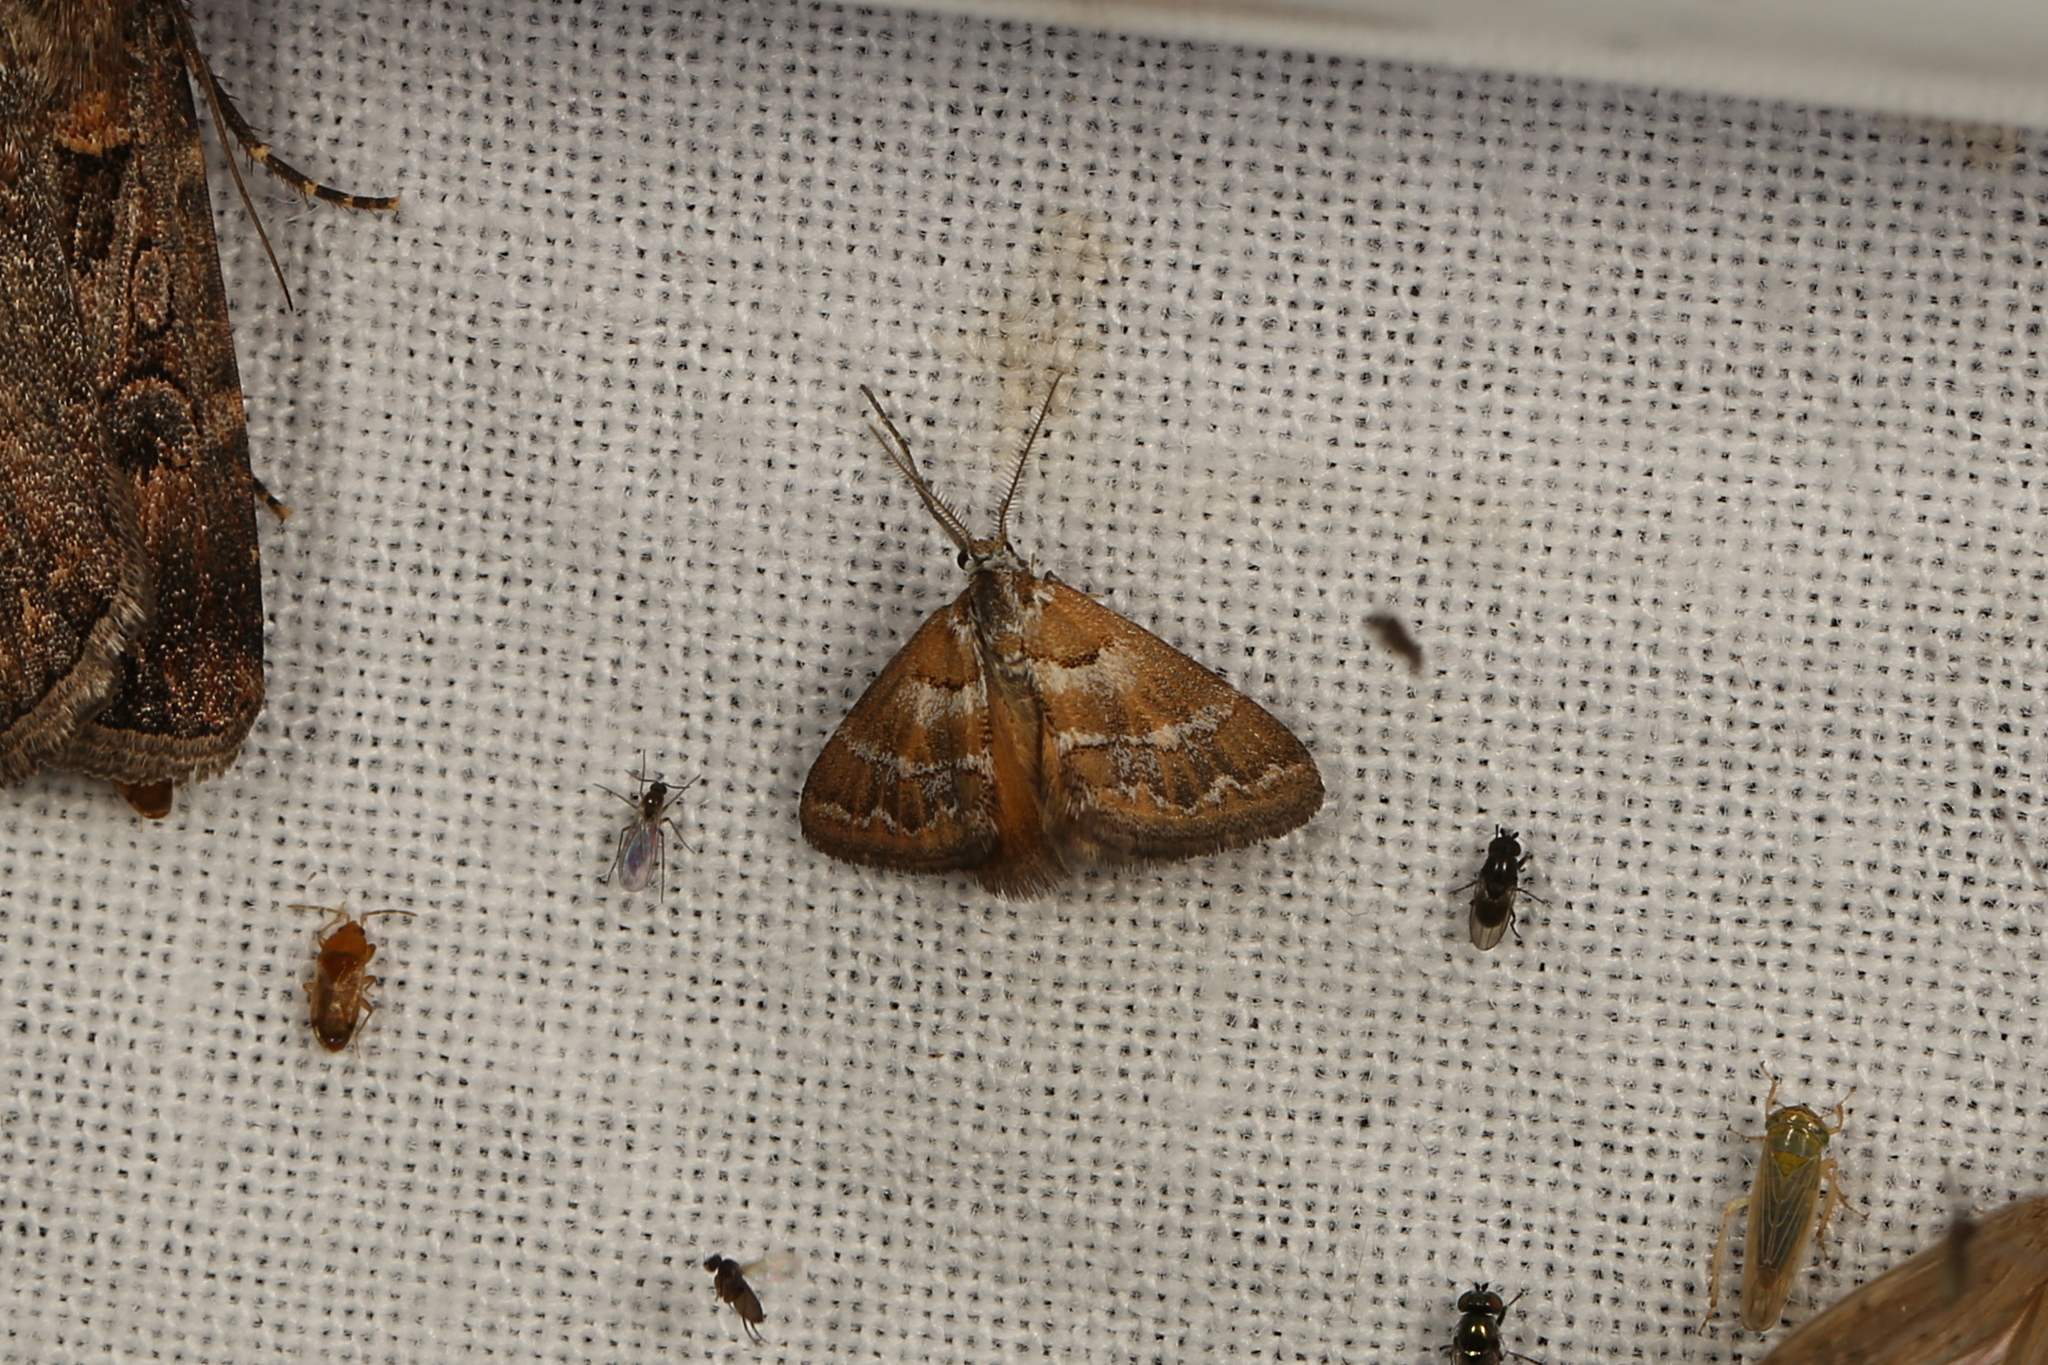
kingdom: Animalia
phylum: Arthropoda
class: Insecta
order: Lepidoptera
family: Geometridae
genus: Anomocentris
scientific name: Anomocentris trissodesma
